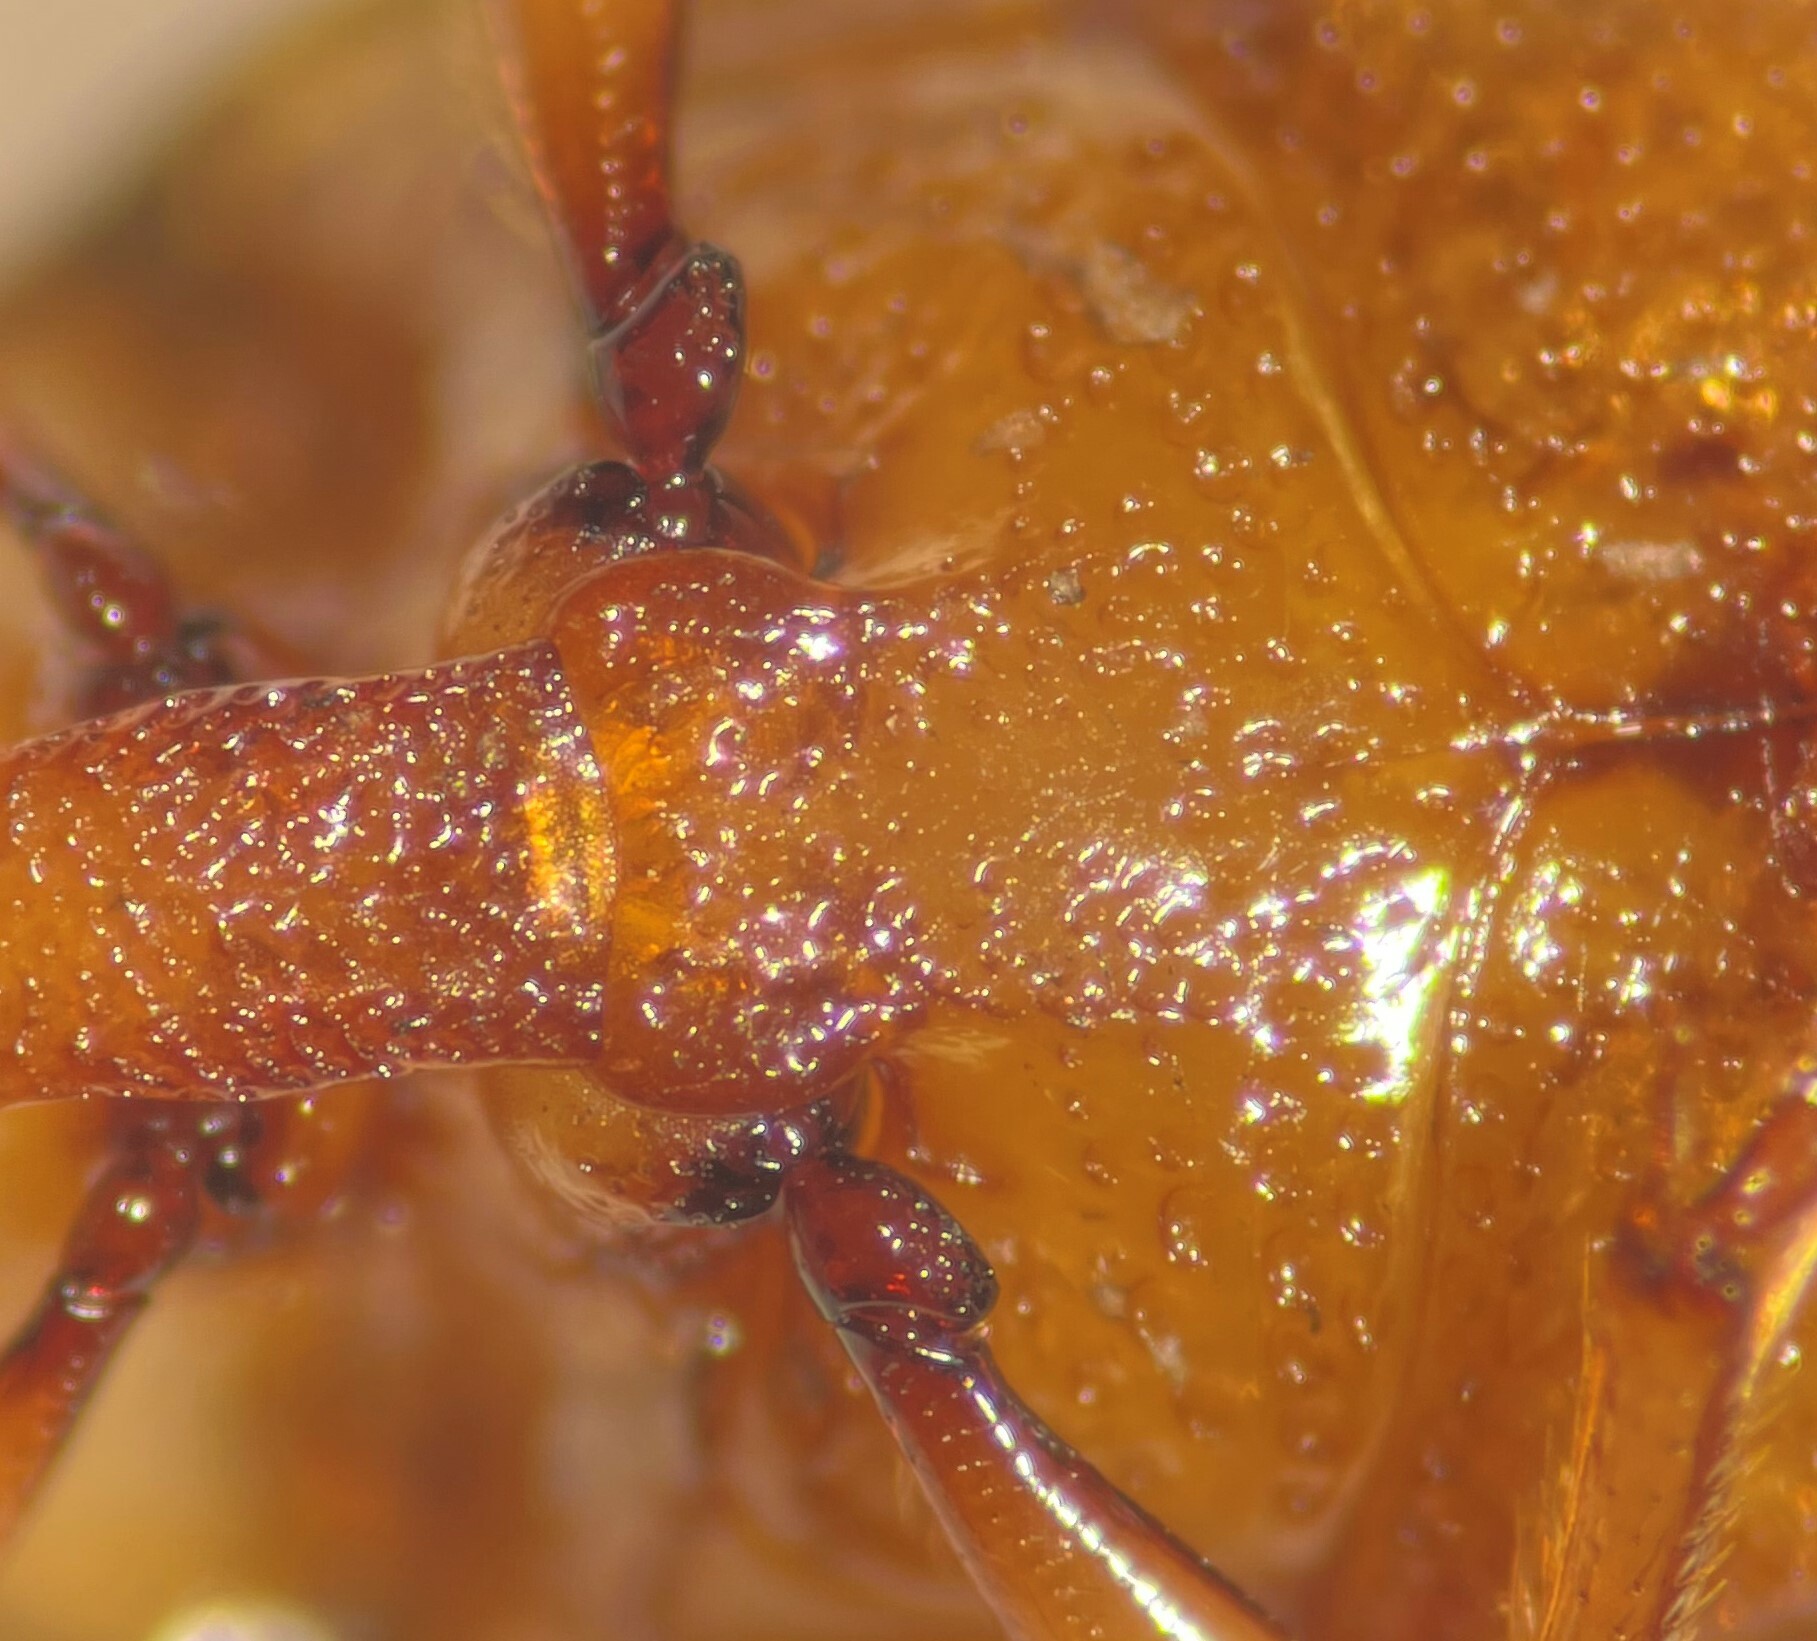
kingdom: Animalia
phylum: Arthropoda
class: Insecta
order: Coleoptera
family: Haliplidae
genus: Haliplus
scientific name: Haliplus leopardus
